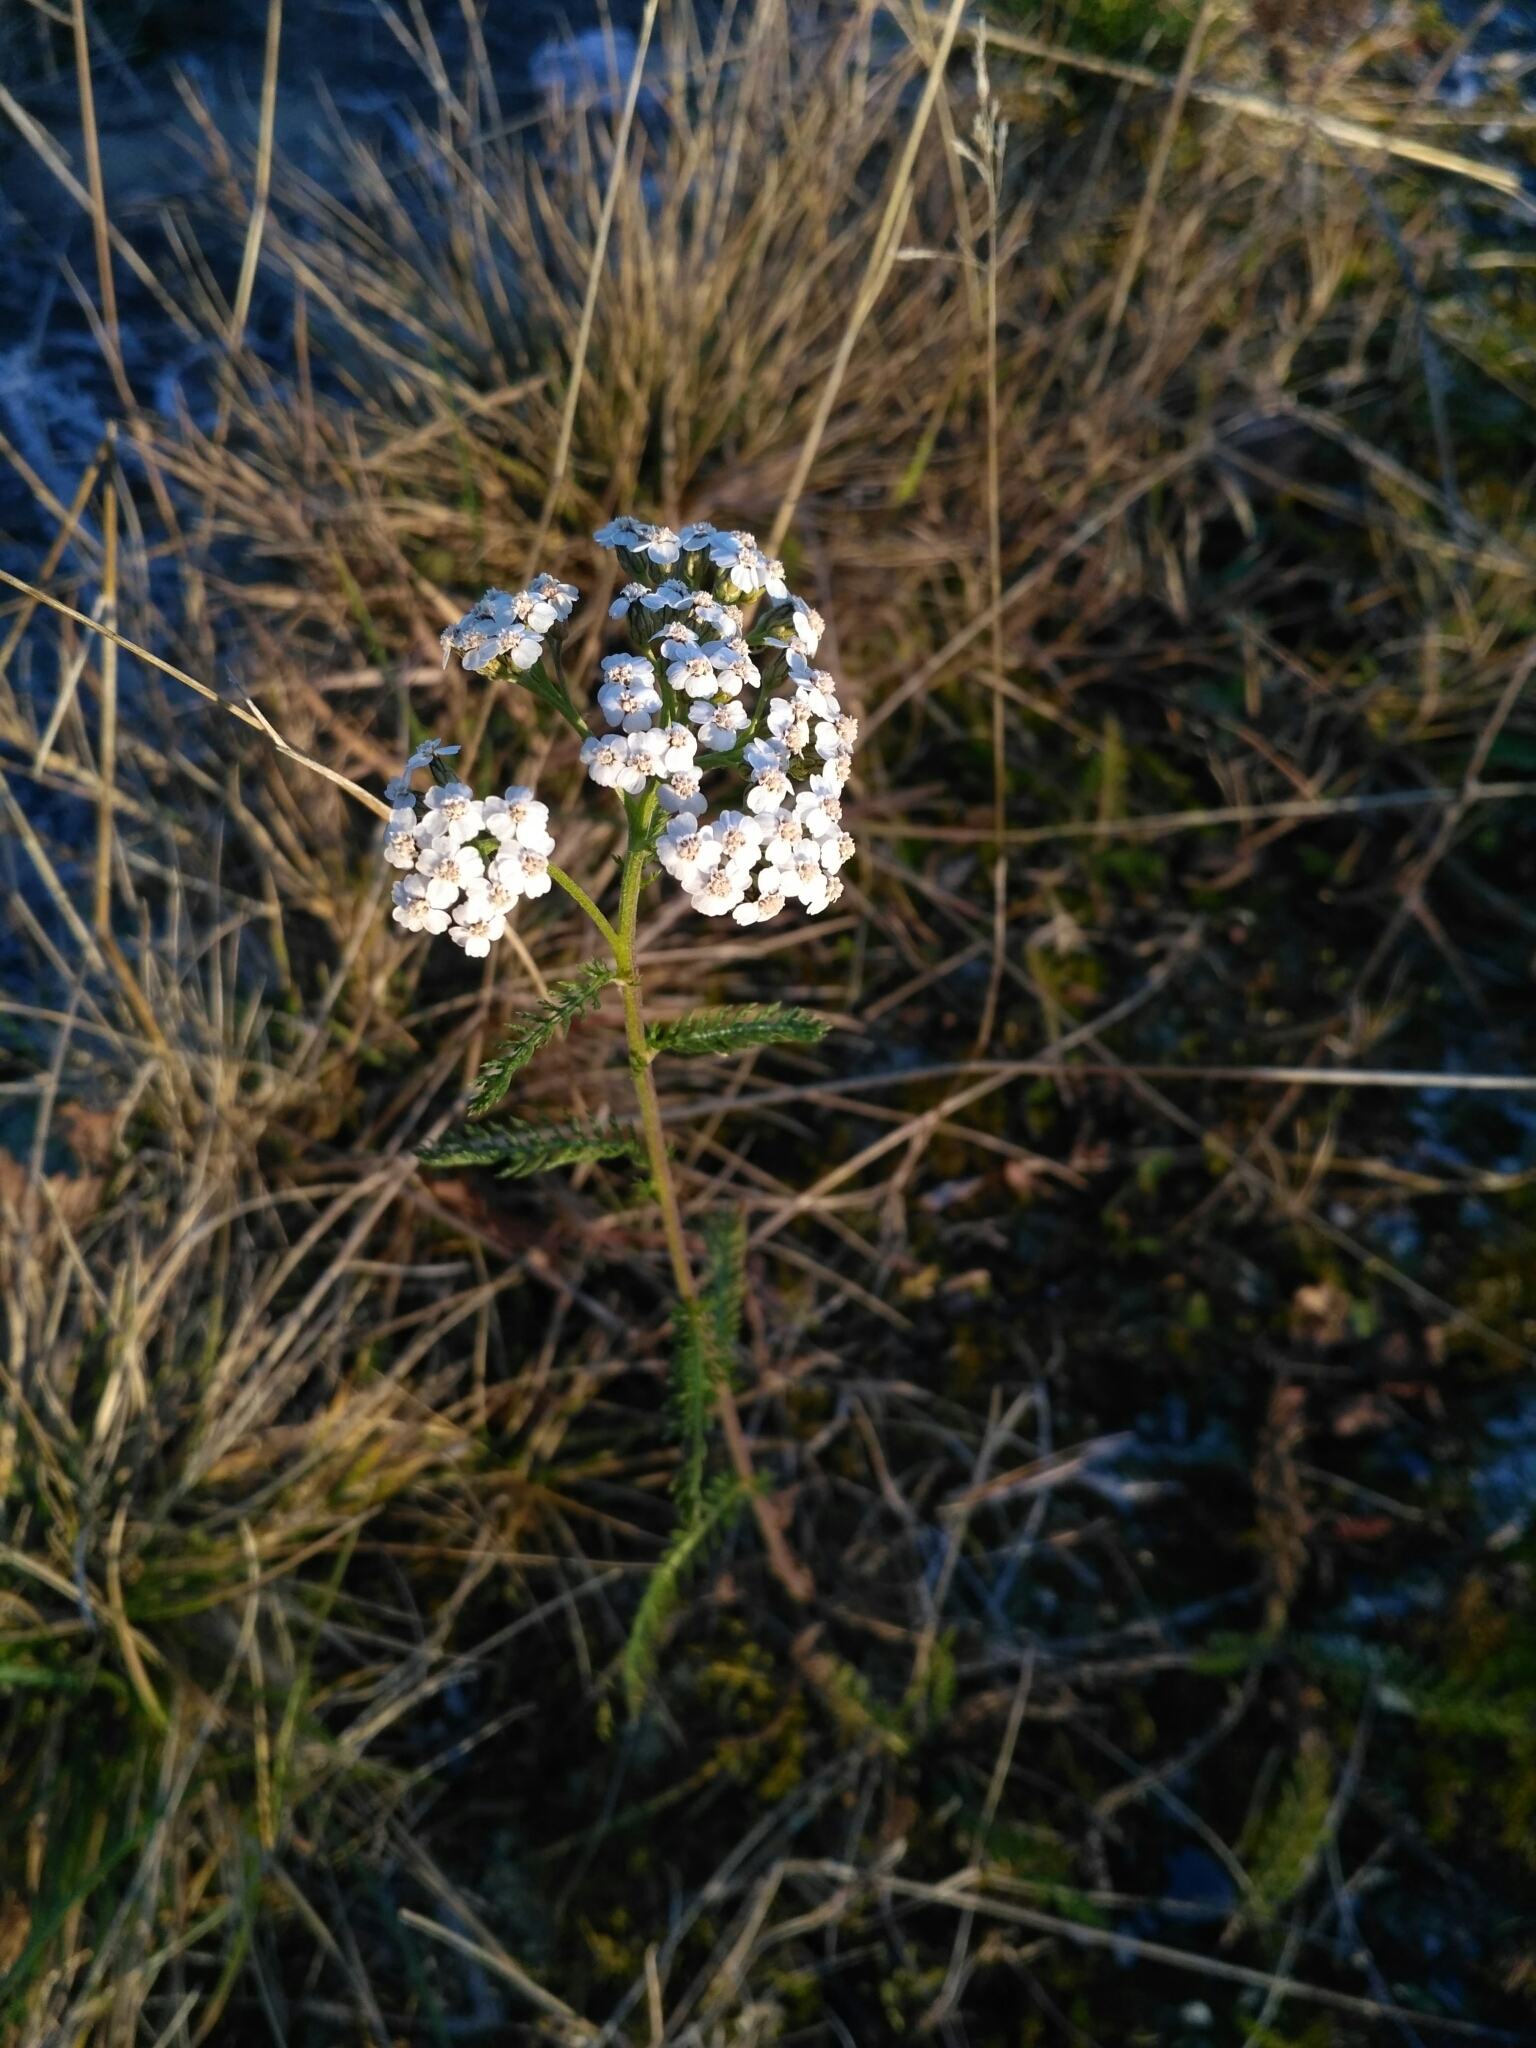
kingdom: Plantae
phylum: Tracheophyta
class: Magnoliopsida
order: Asterales
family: Asteraceae
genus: Achillea
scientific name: Achillea millefolium
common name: Yarrow
